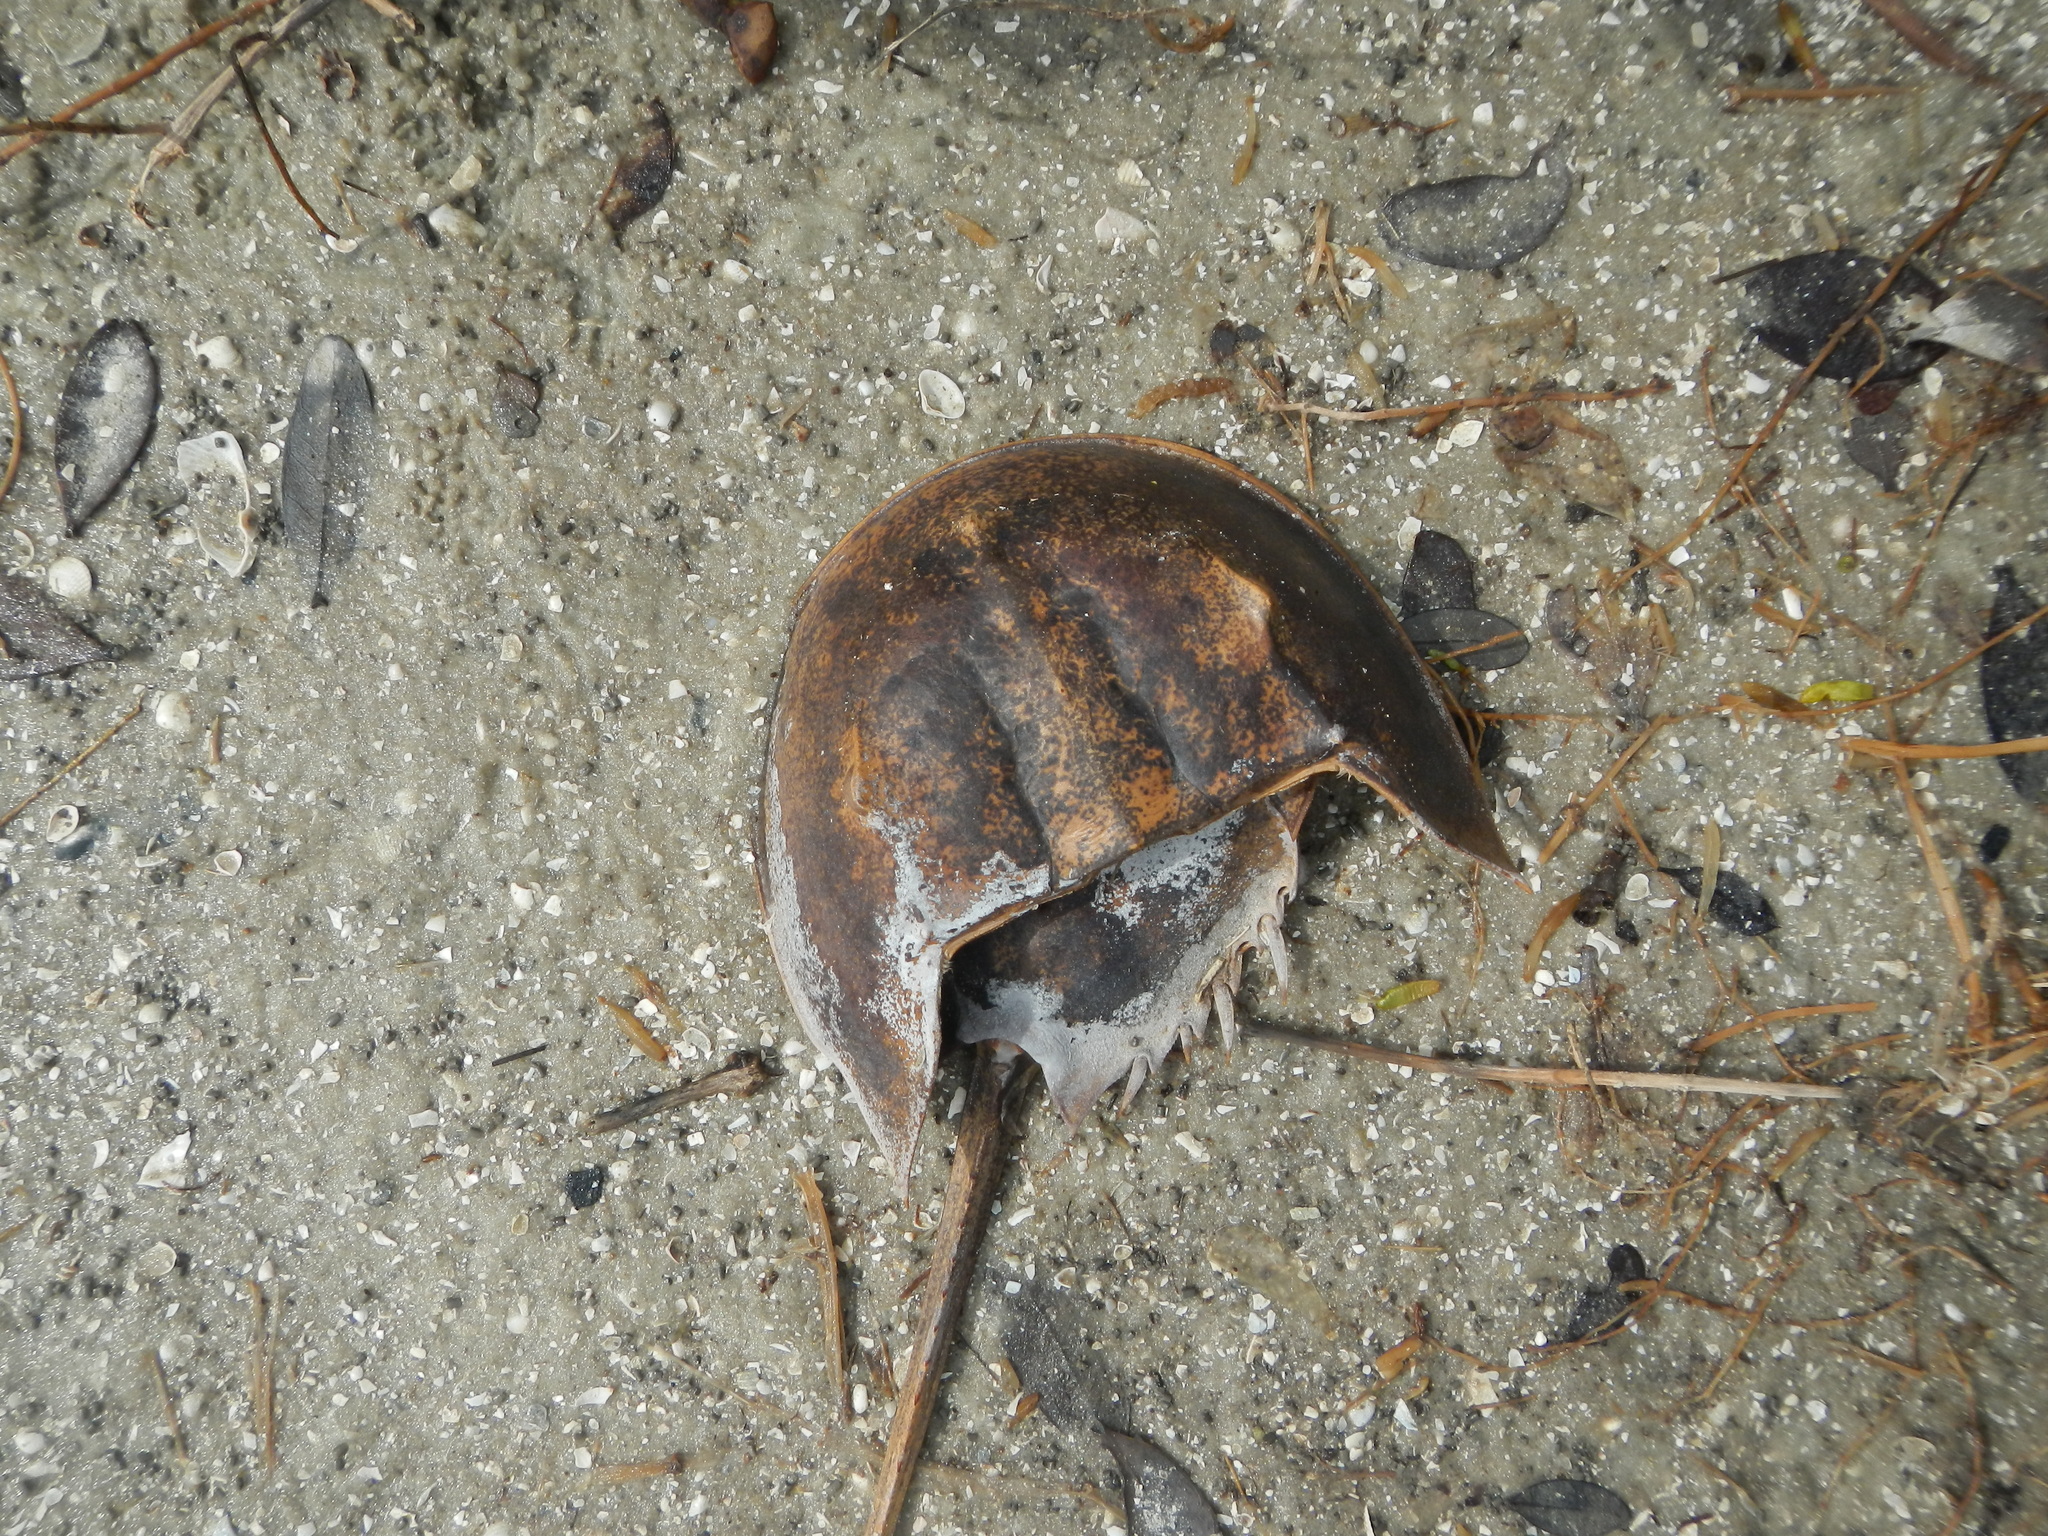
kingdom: Animalia
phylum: Arthropoda
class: Merostomata
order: Xiphosurida
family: Limulidae
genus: Limulus
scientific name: Limulus polyphemus
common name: Horseshoe crab
